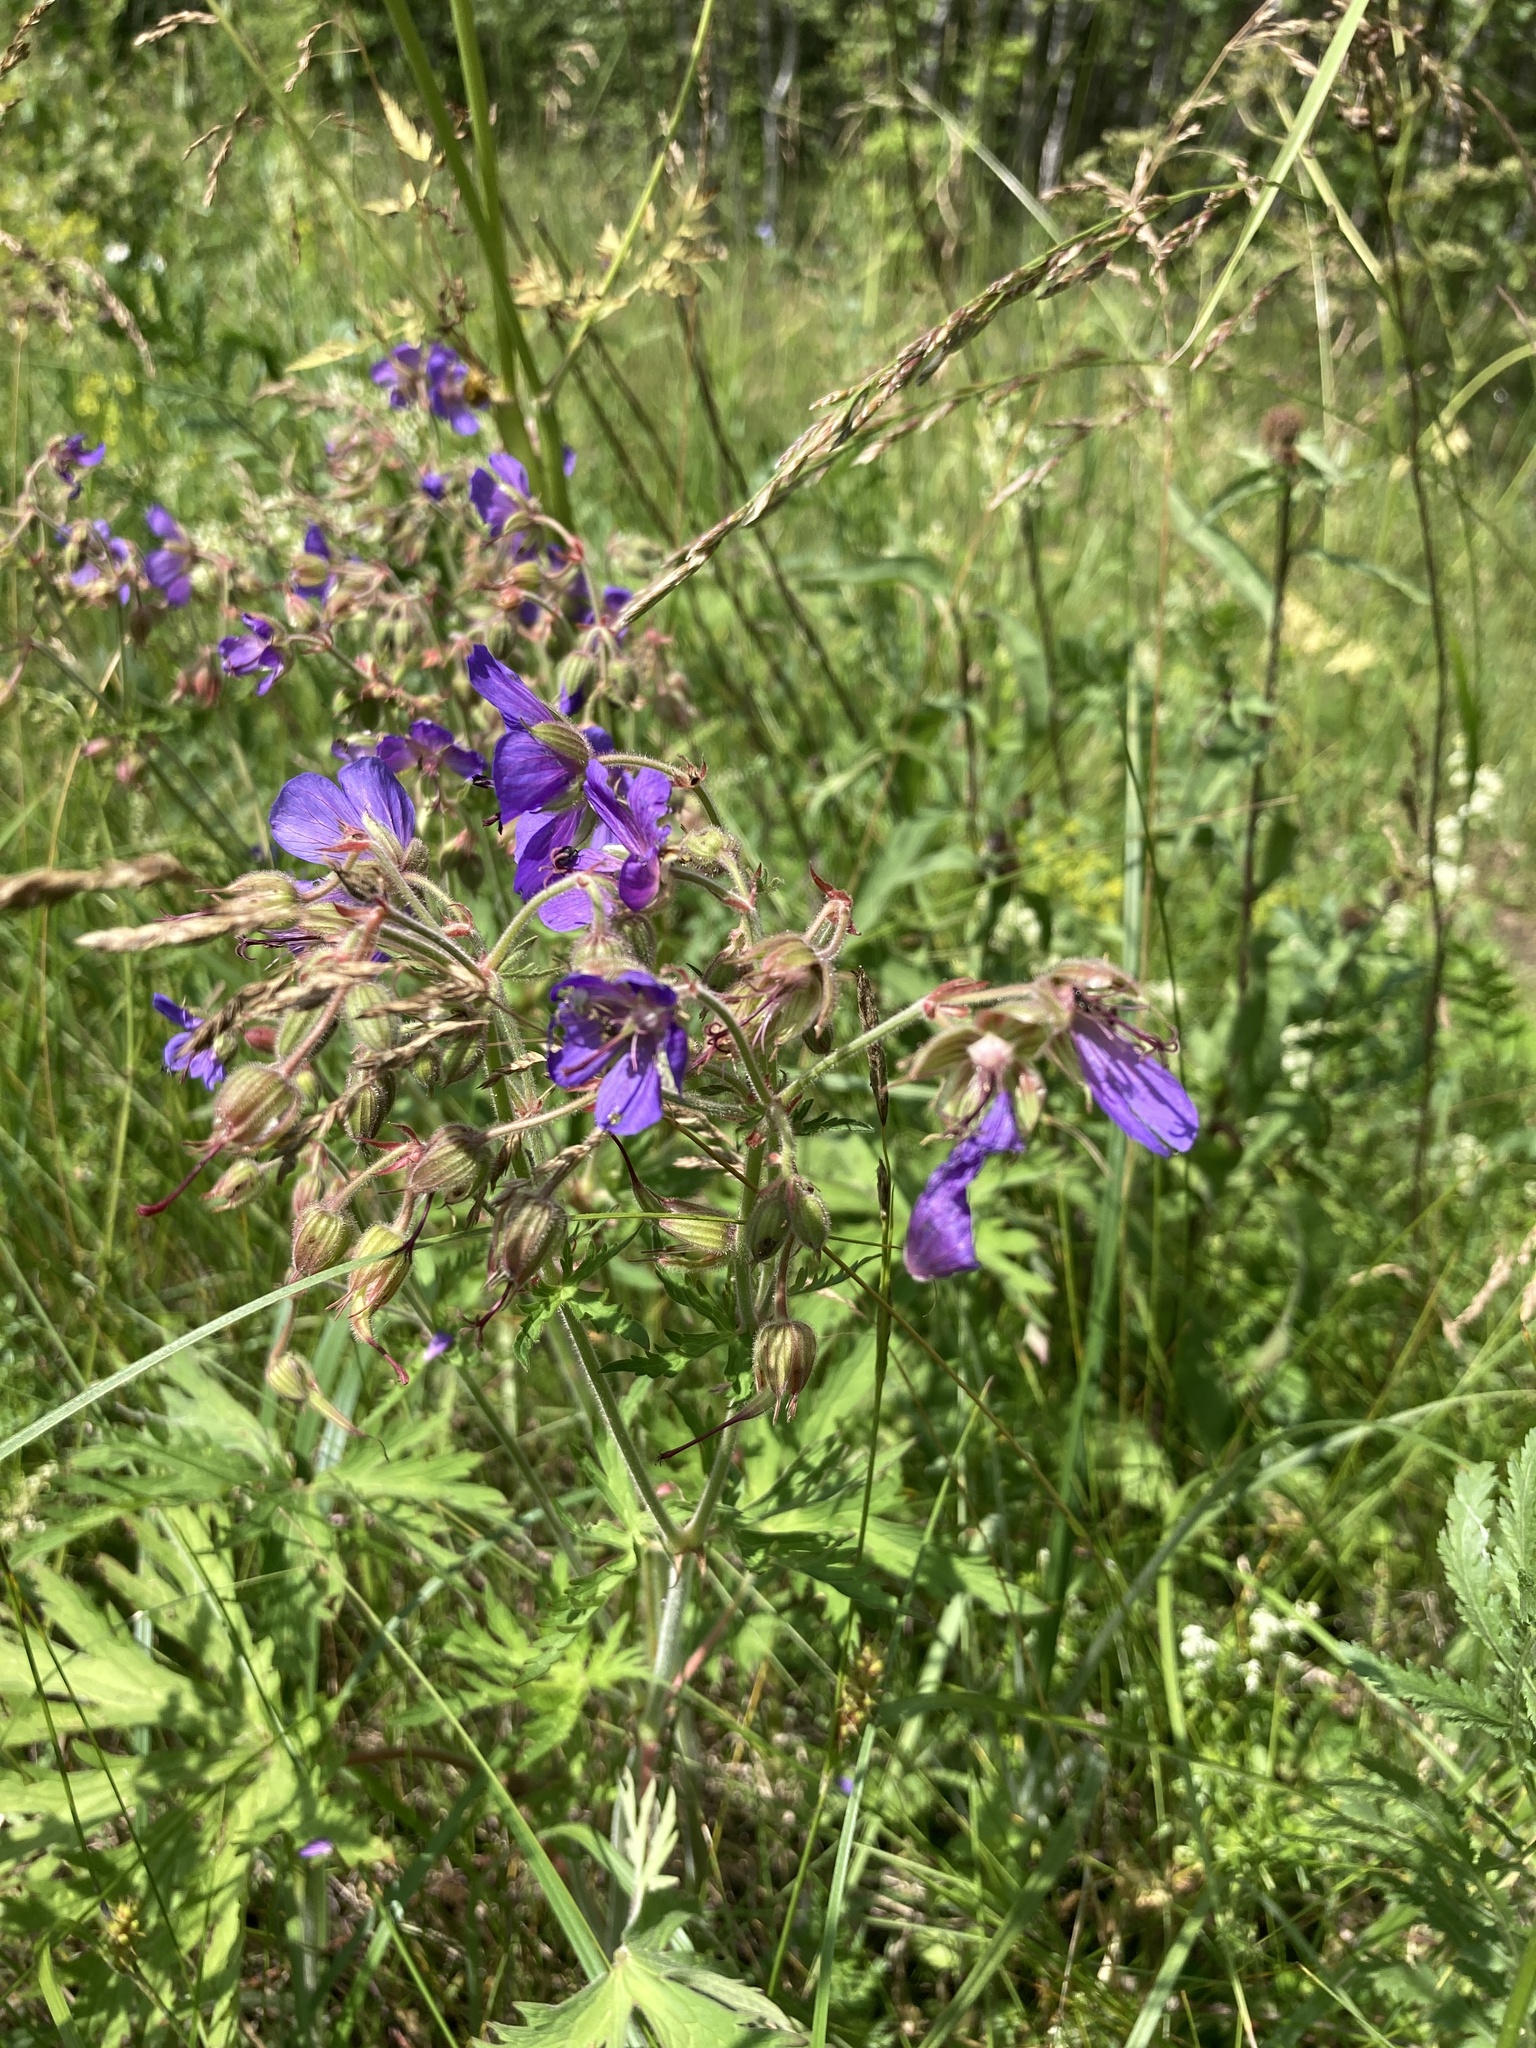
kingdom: Plantae
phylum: Tracheophyta
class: Magnoliopsida
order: Geraniales
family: Geraniaceae
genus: Geranium
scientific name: Geranium pratense
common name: Meadow crane's-bill
